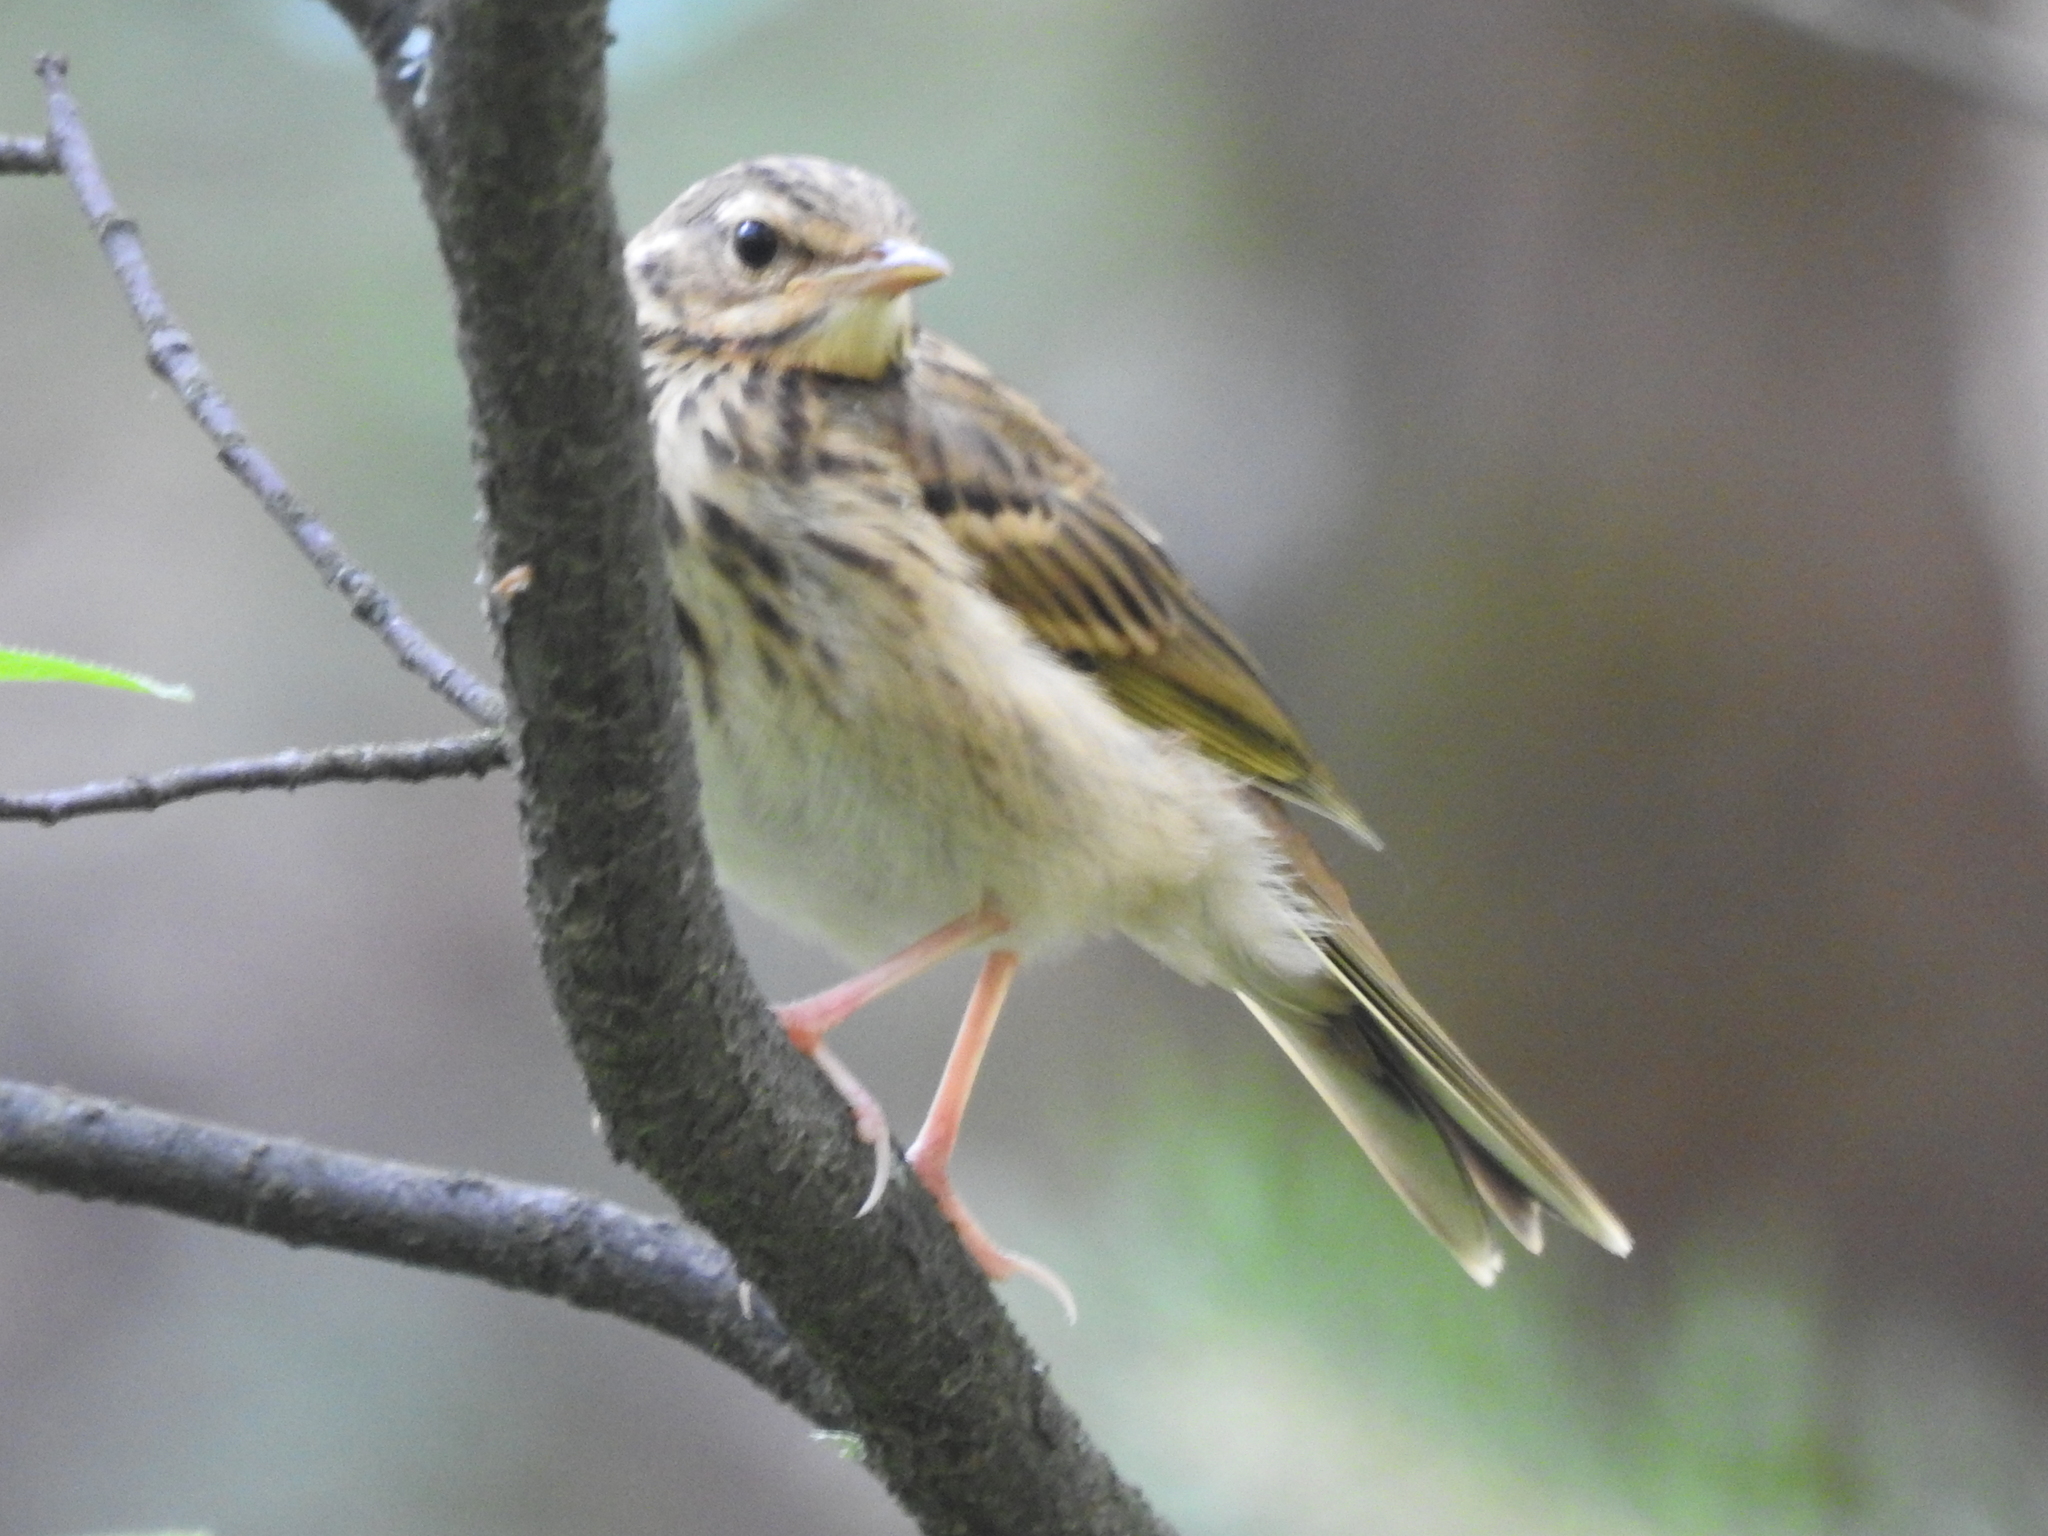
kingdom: Animalia
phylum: Chordata
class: Aves
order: Passeriformes
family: Motacillidae
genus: Anthus
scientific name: Anthus hodgsoni
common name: Olive-backed pipit
